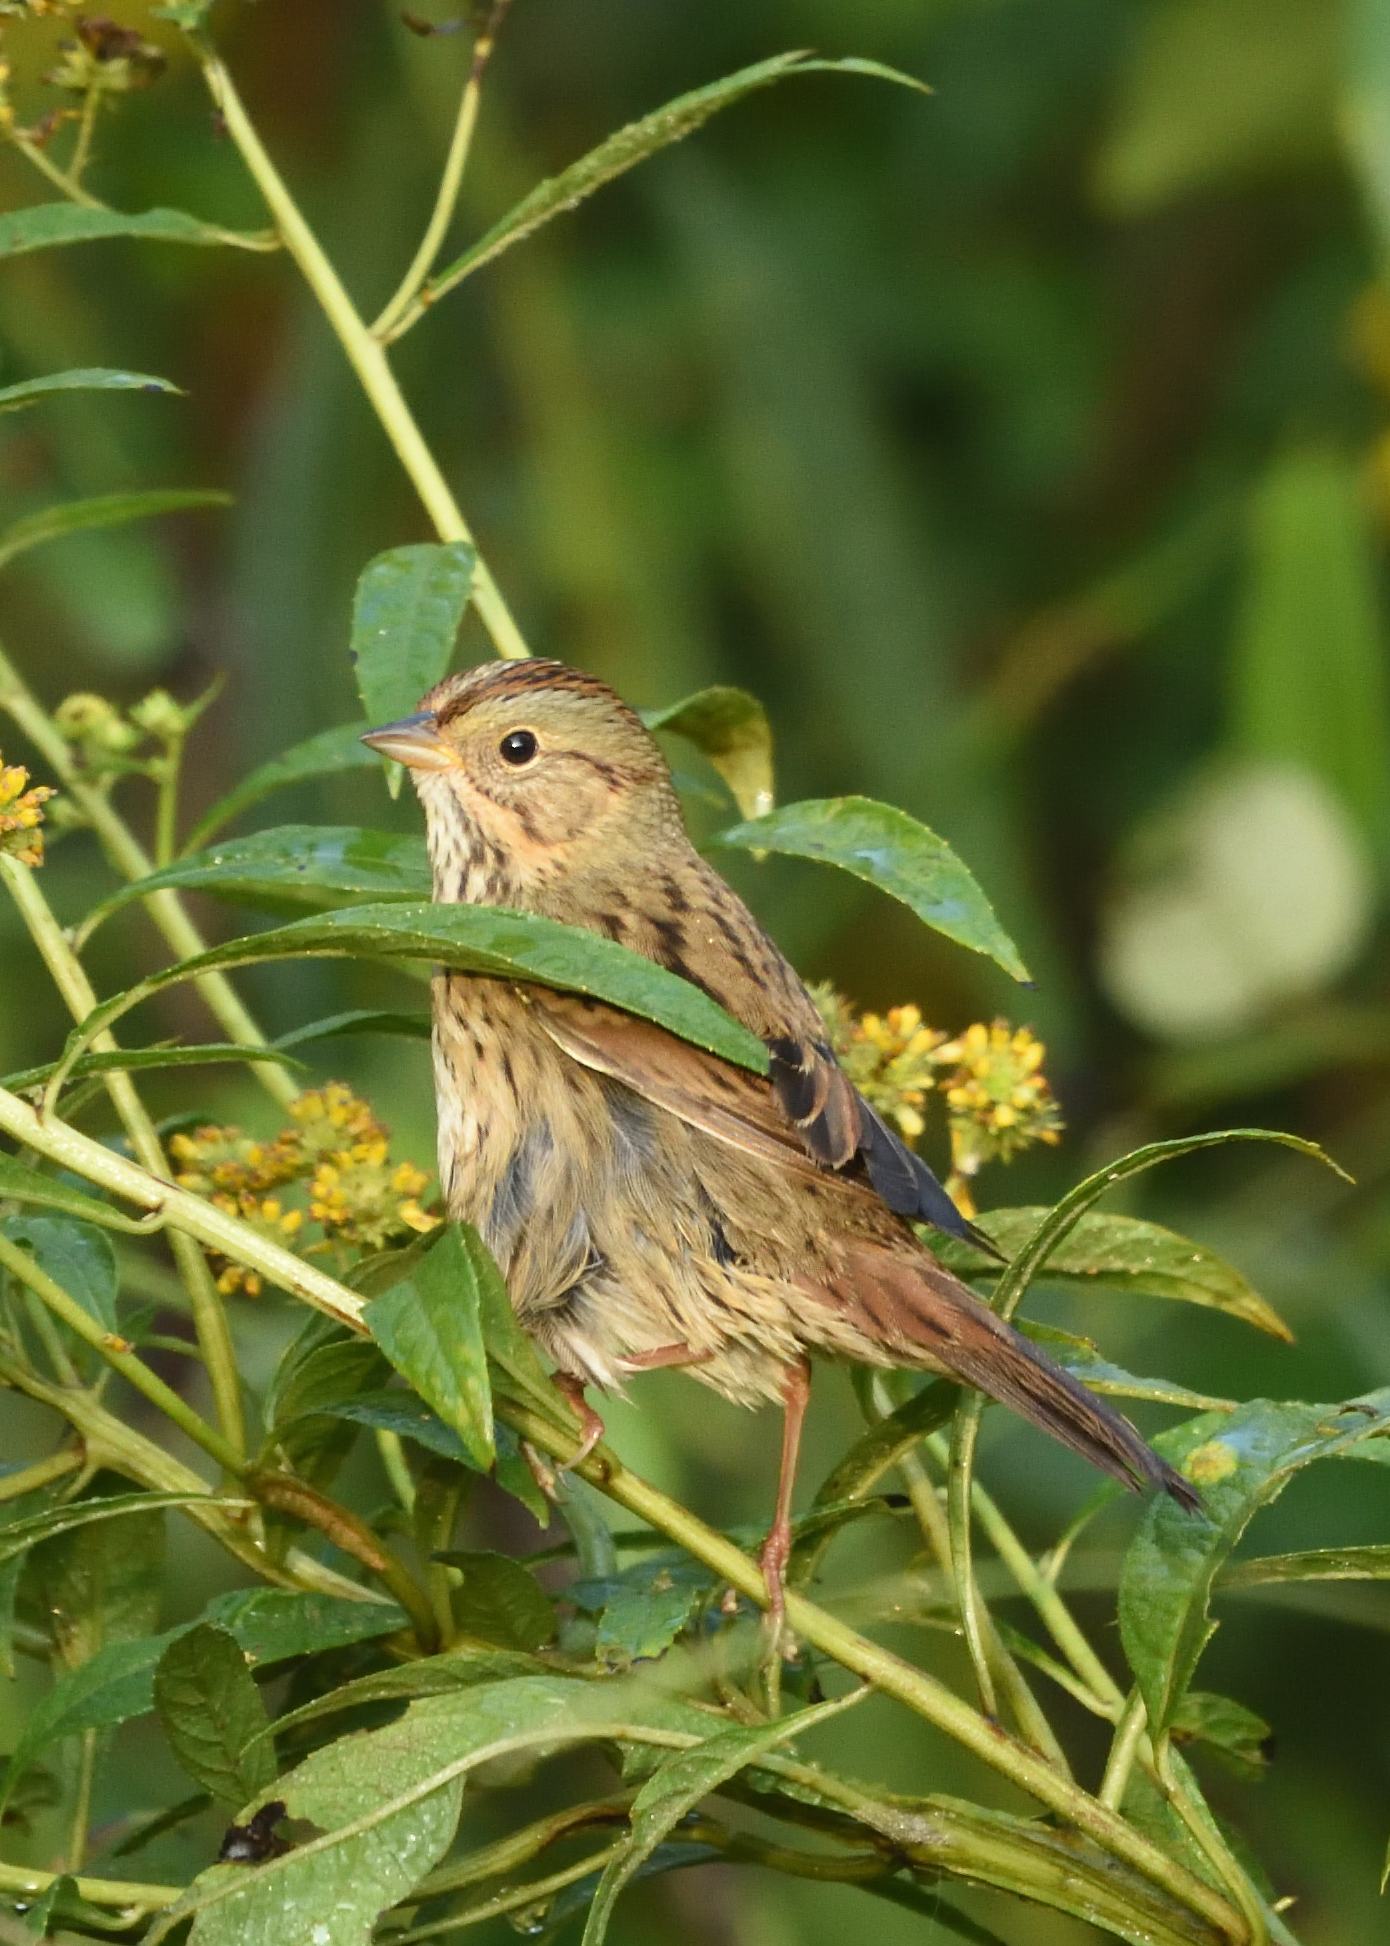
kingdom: Animalia
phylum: Chordata
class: Aves
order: Passeriformes
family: Passerellidae
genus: Melospiza
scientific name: Melospiza lincolnii
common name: Lincoln's sparrow
